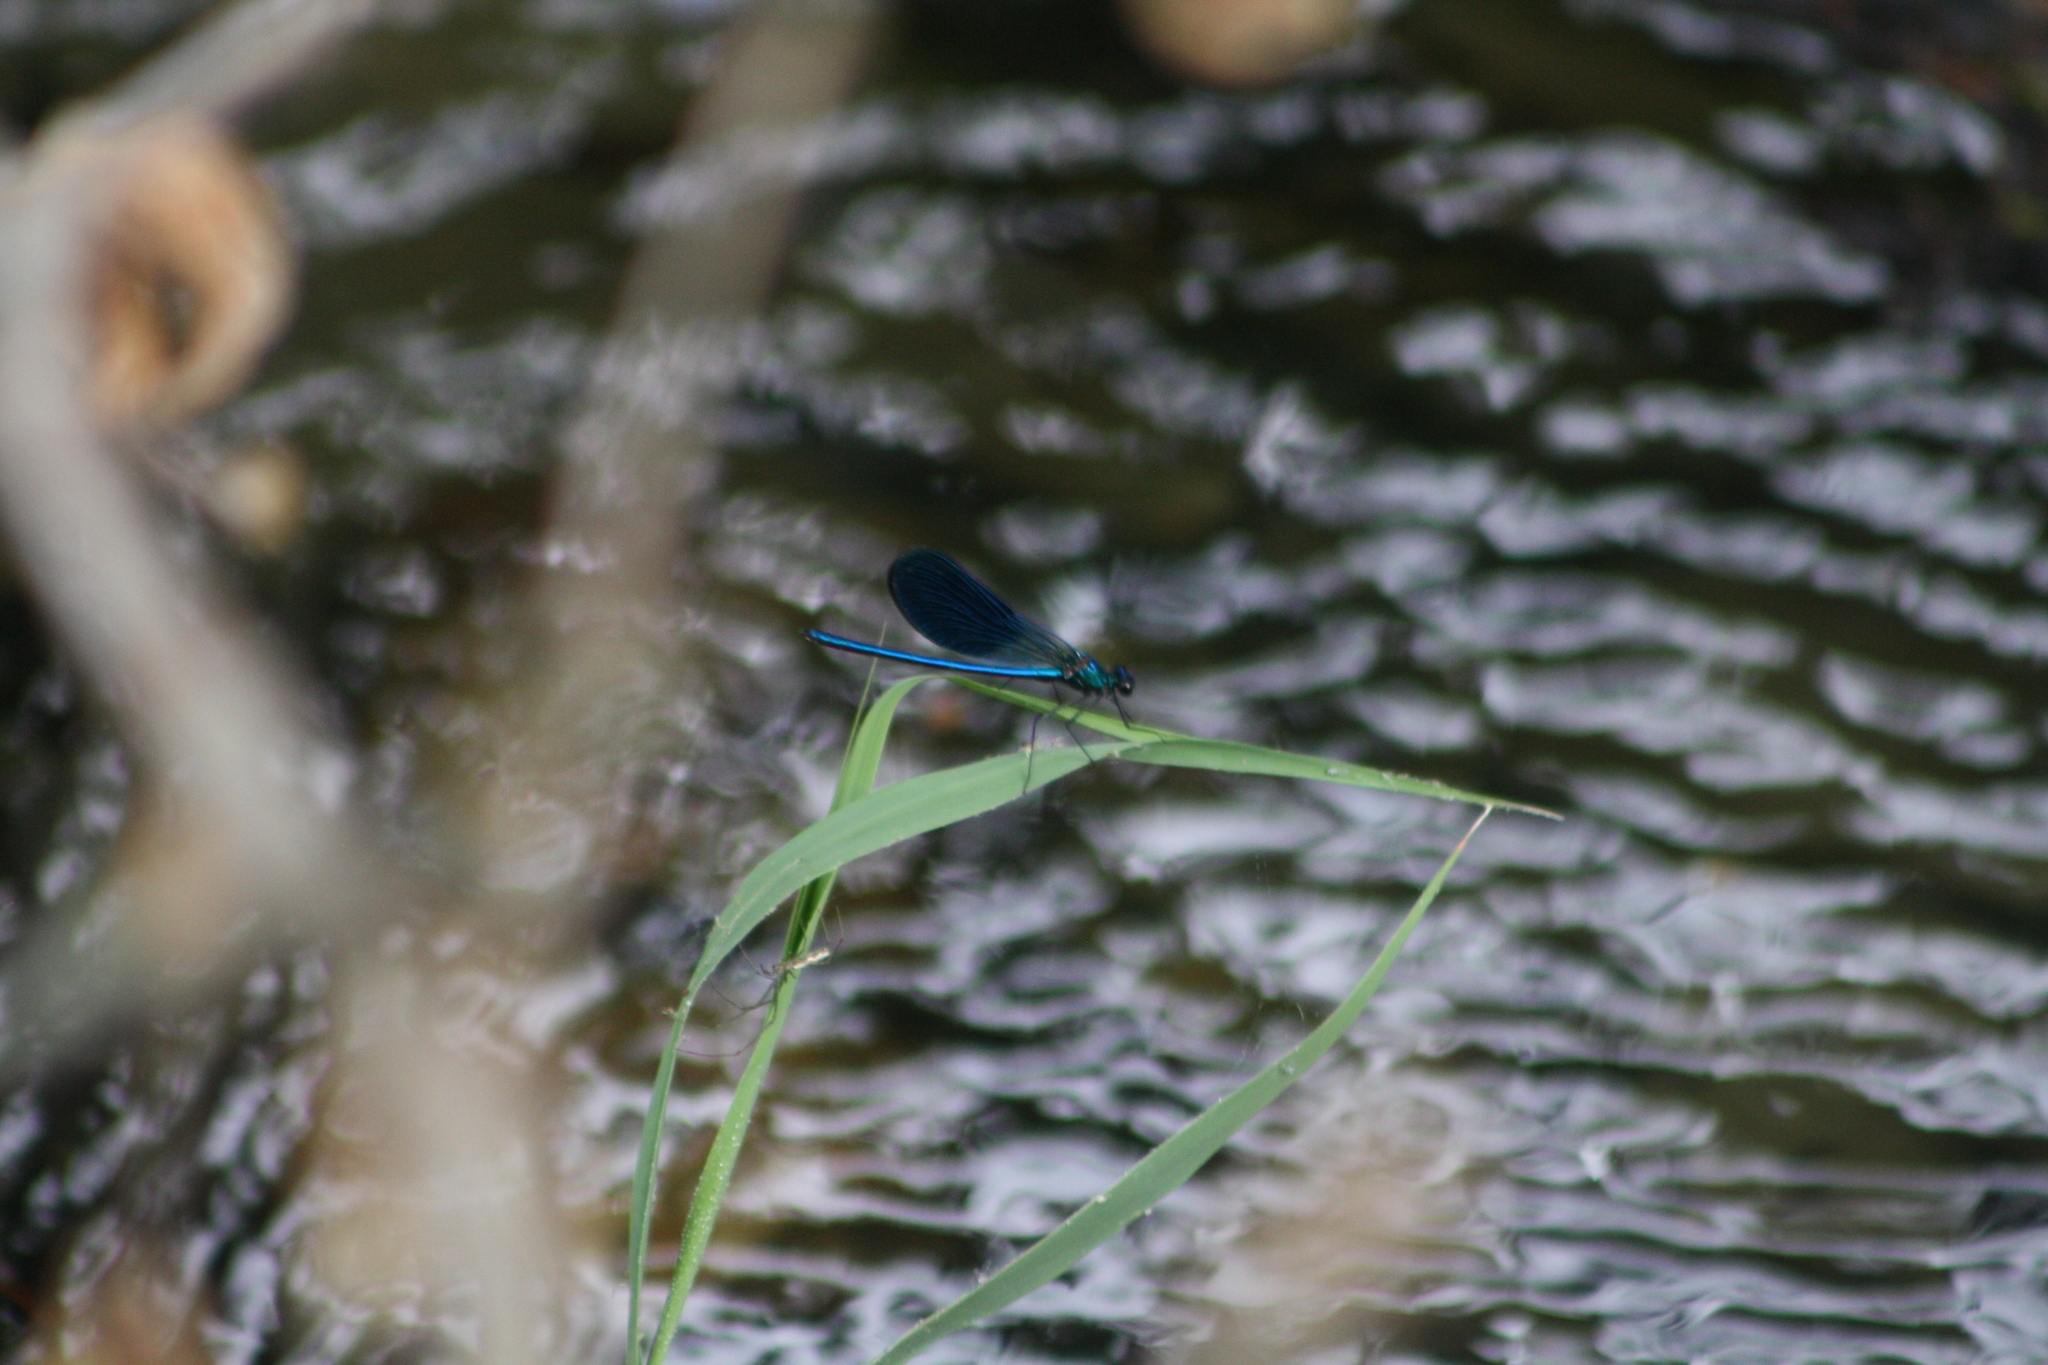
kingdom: Animalia
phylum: Arthropoda
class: Insecta
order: Odonata
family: Calopterygidae
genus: Calopteryx
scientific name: Calopteryx splendens
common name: Banded demoiselle
